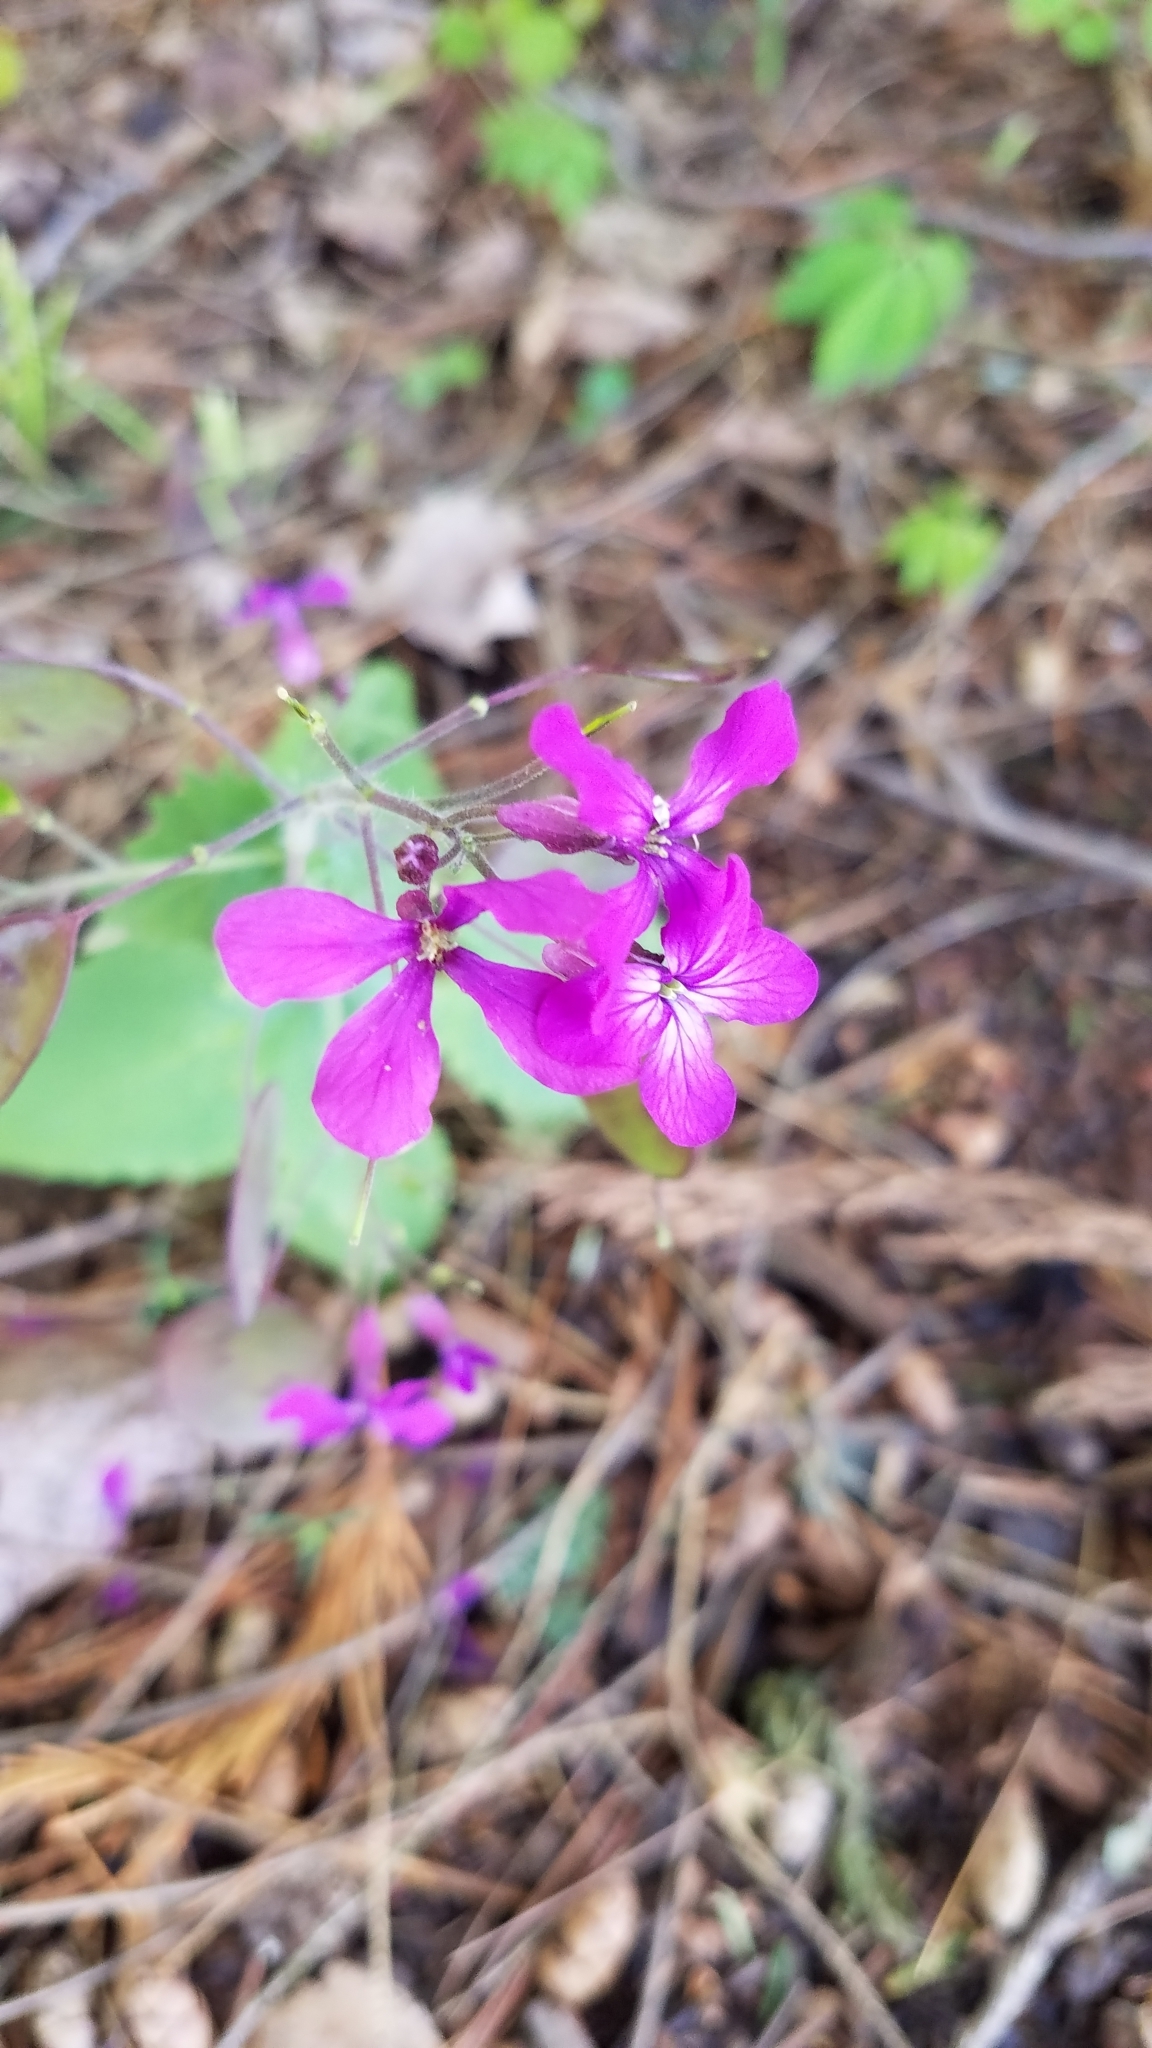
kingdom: Plantae
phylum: Tracheophyta
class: Magnoliopsida
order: Brassicales
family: Brassicaceae
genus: Lunaria
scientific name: Lunaria annua
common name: Honesty
